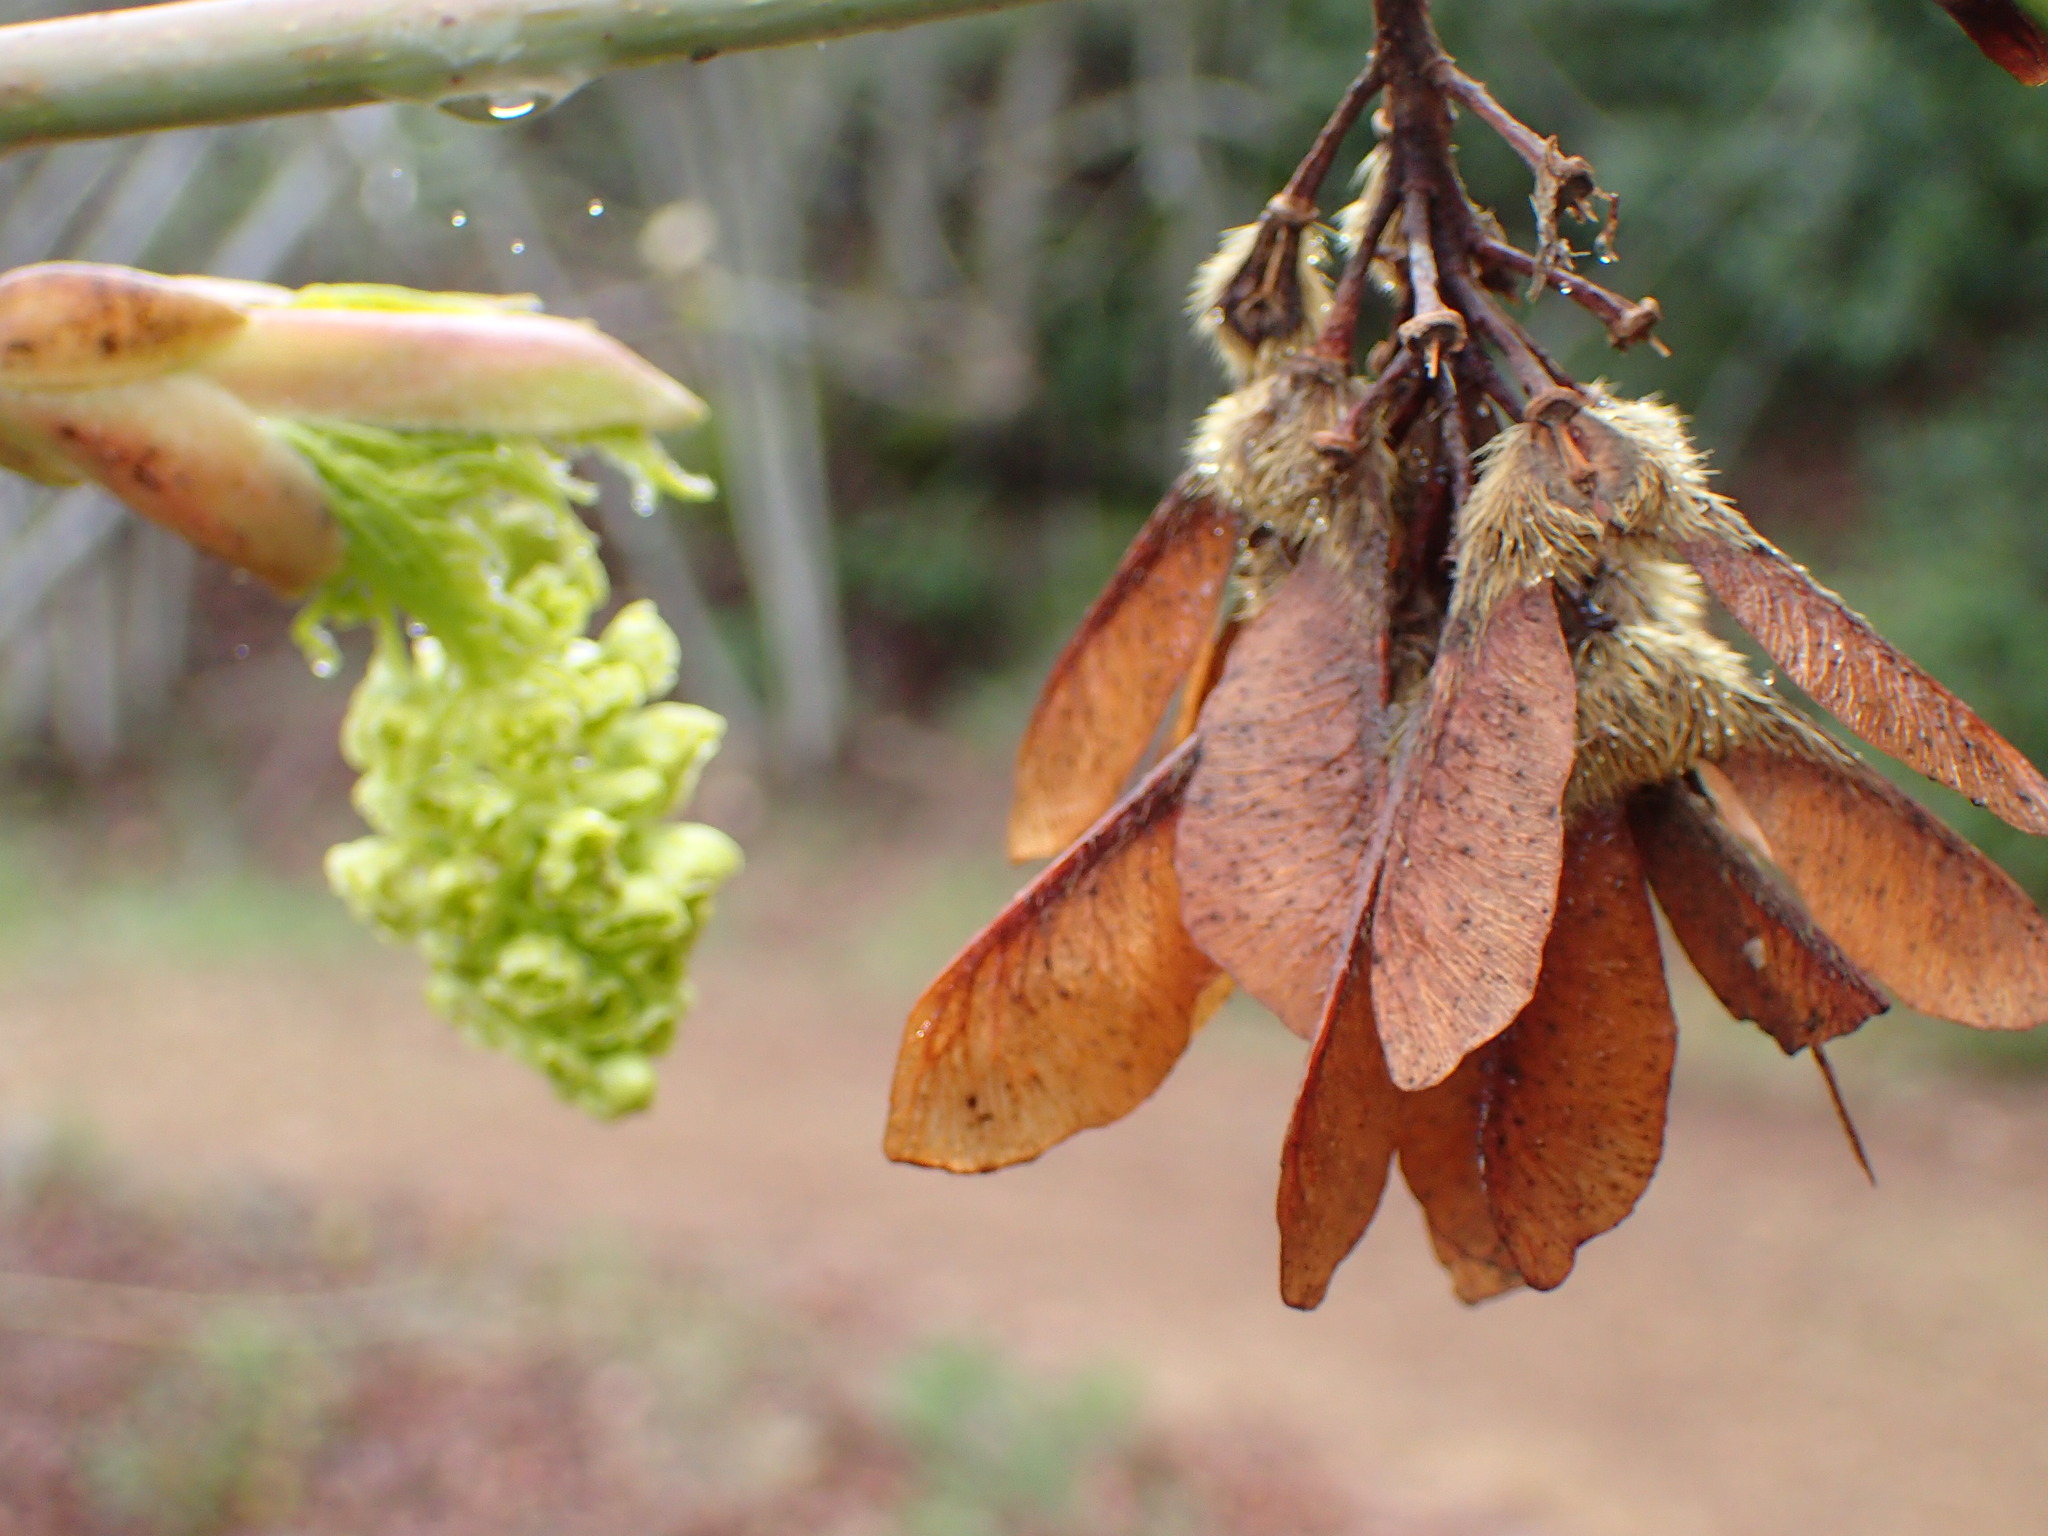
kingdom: Plantae
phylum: Tracheophyta
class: Magnoliopsida
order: Sapindales
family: Sapindaceae
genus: Acer
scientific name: Acer macrophyllum
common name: Oregon maple
